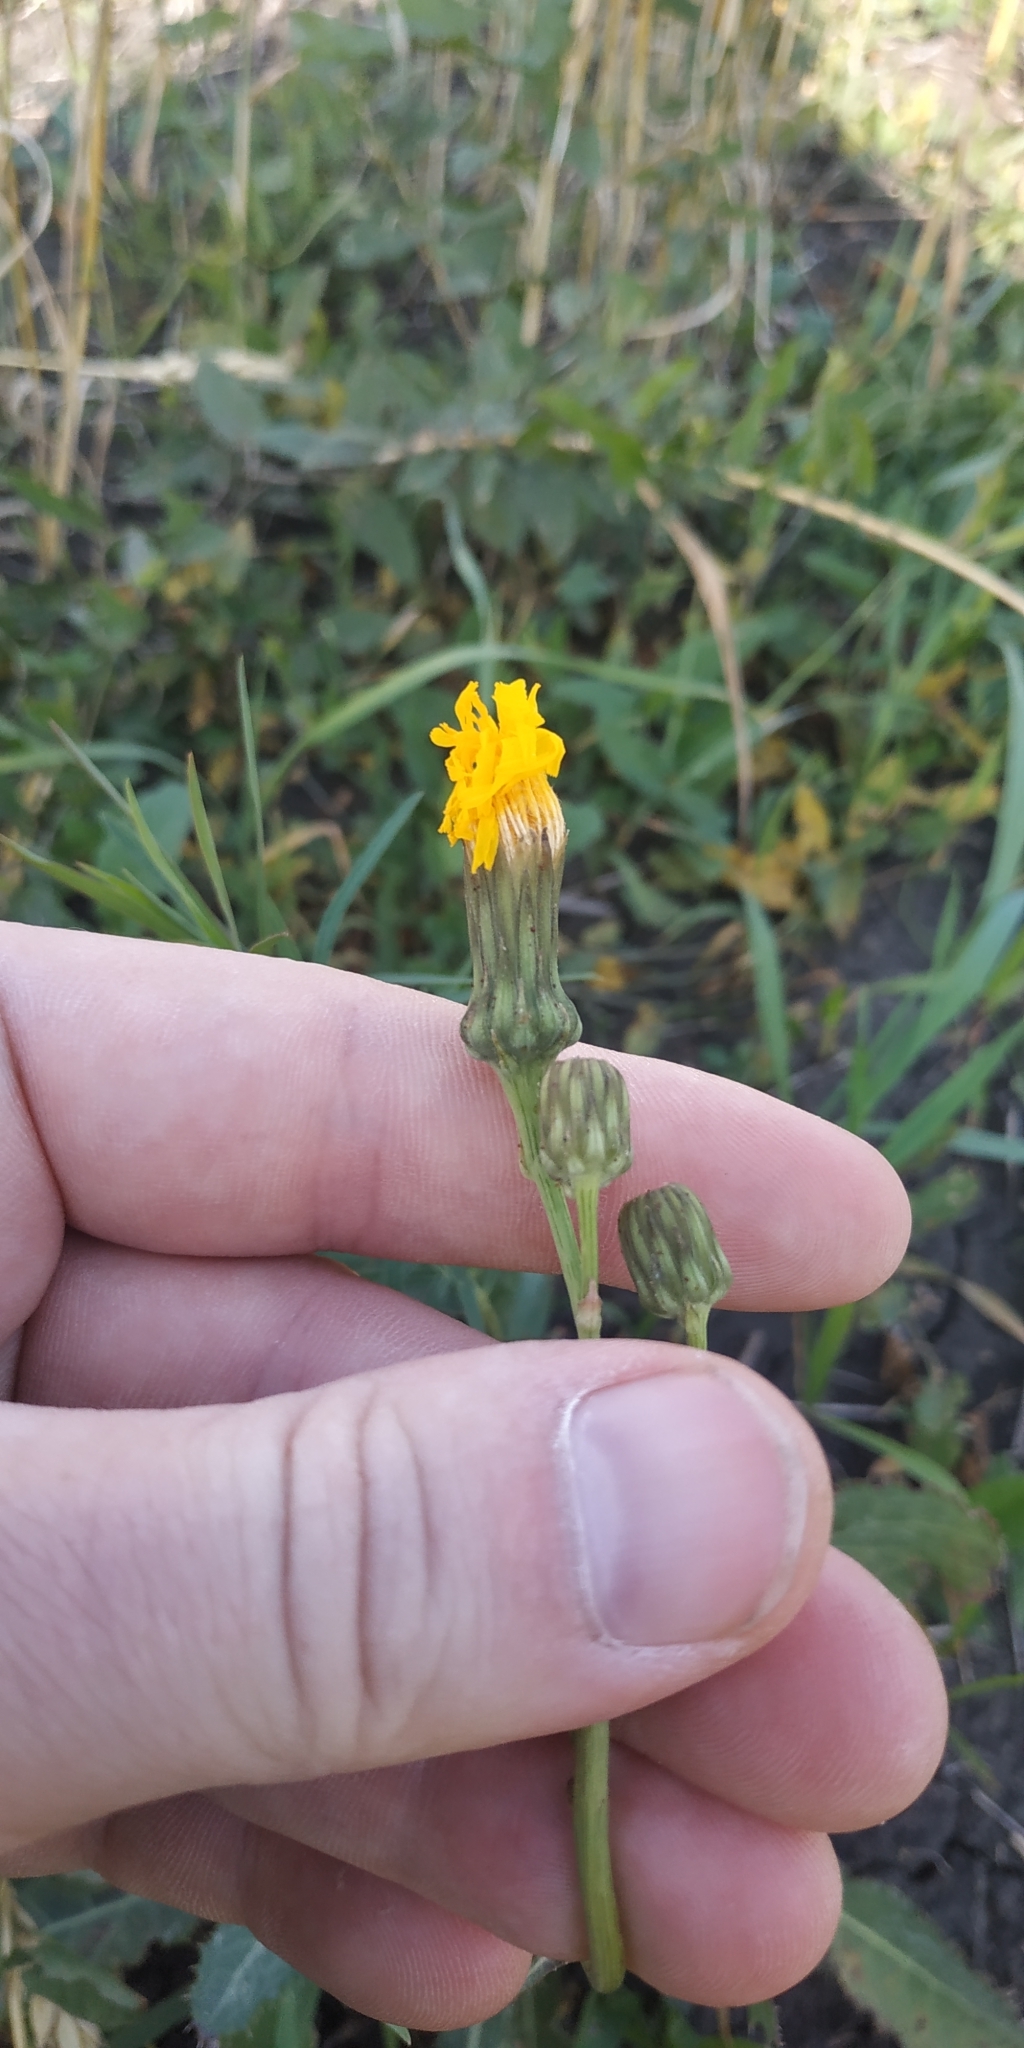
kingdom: Plantae
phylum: Tracheophyta
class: Magnoliopsida
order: Asterales
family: Asteraceae
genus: Sonchus
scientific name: Sonchus arvensis
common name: Perennial sow-thistle
